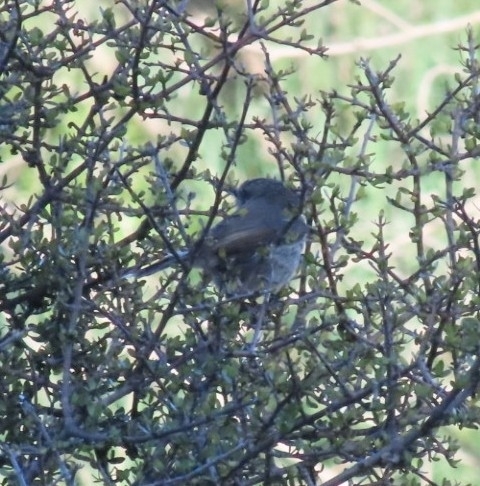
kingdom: Animalia
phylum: Chordata
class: Aves
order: Passeriformes
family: Acanthizidae
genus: Gerygone
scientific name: Gerygone igata
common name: Grey gerygone
